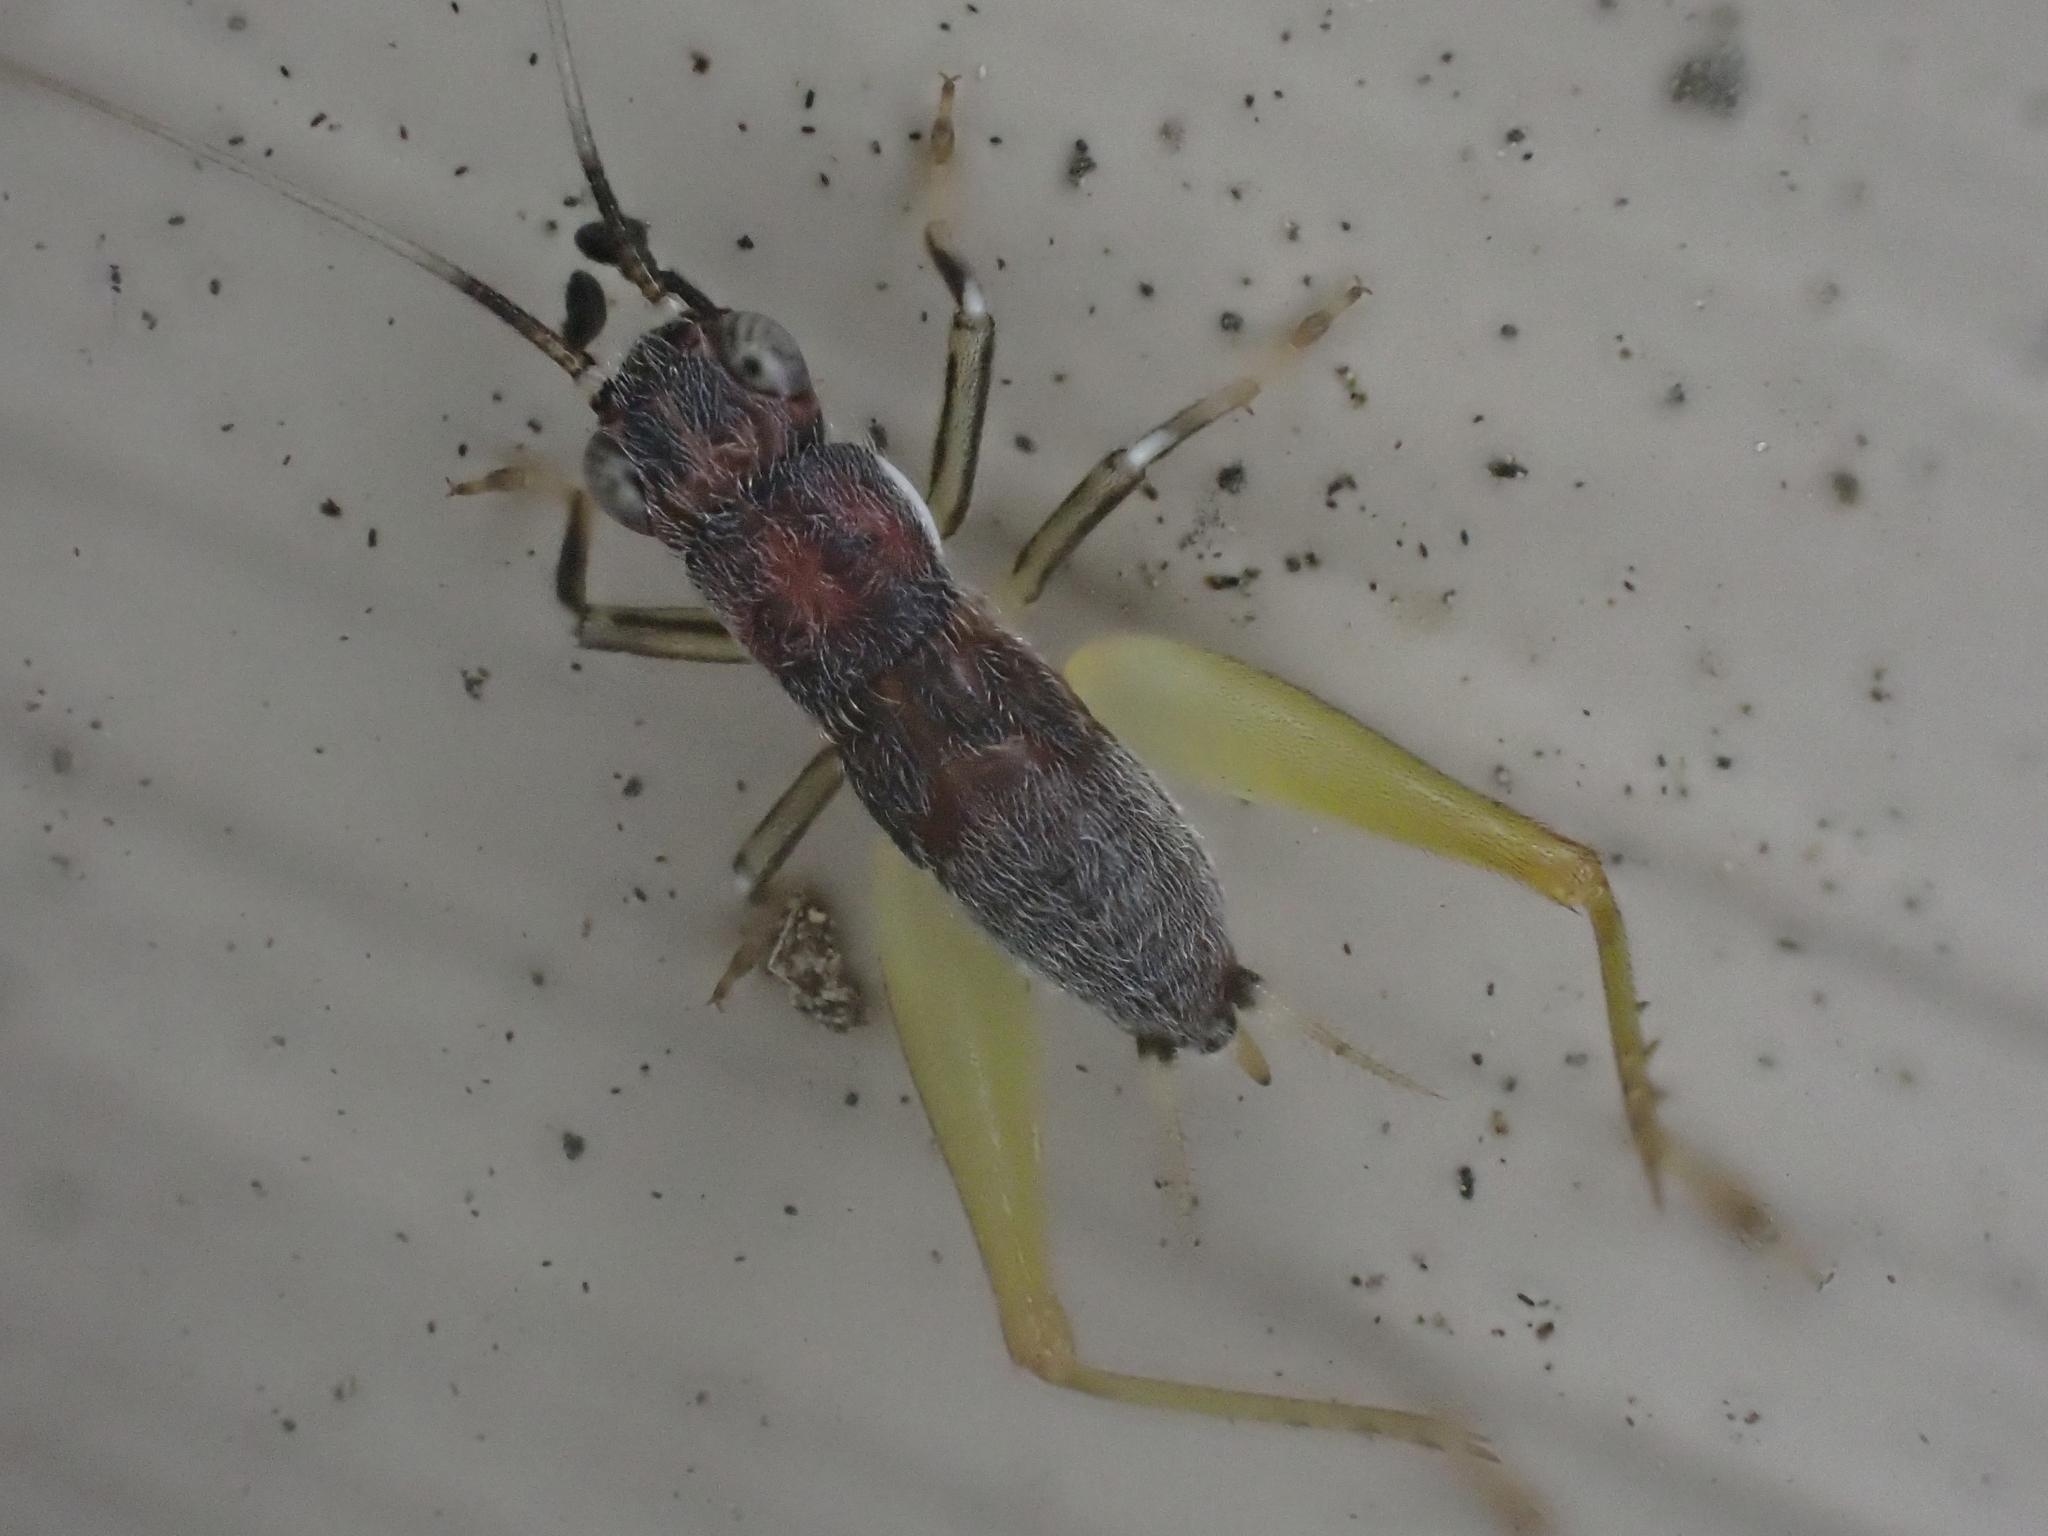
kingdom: Animalia
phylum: Arthropoda
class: Insecta
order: Orthoptera
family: Trigonidiidae
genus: Phyllopalpus
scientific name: Phyllopalpus pulchellus
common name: Handsome trig
